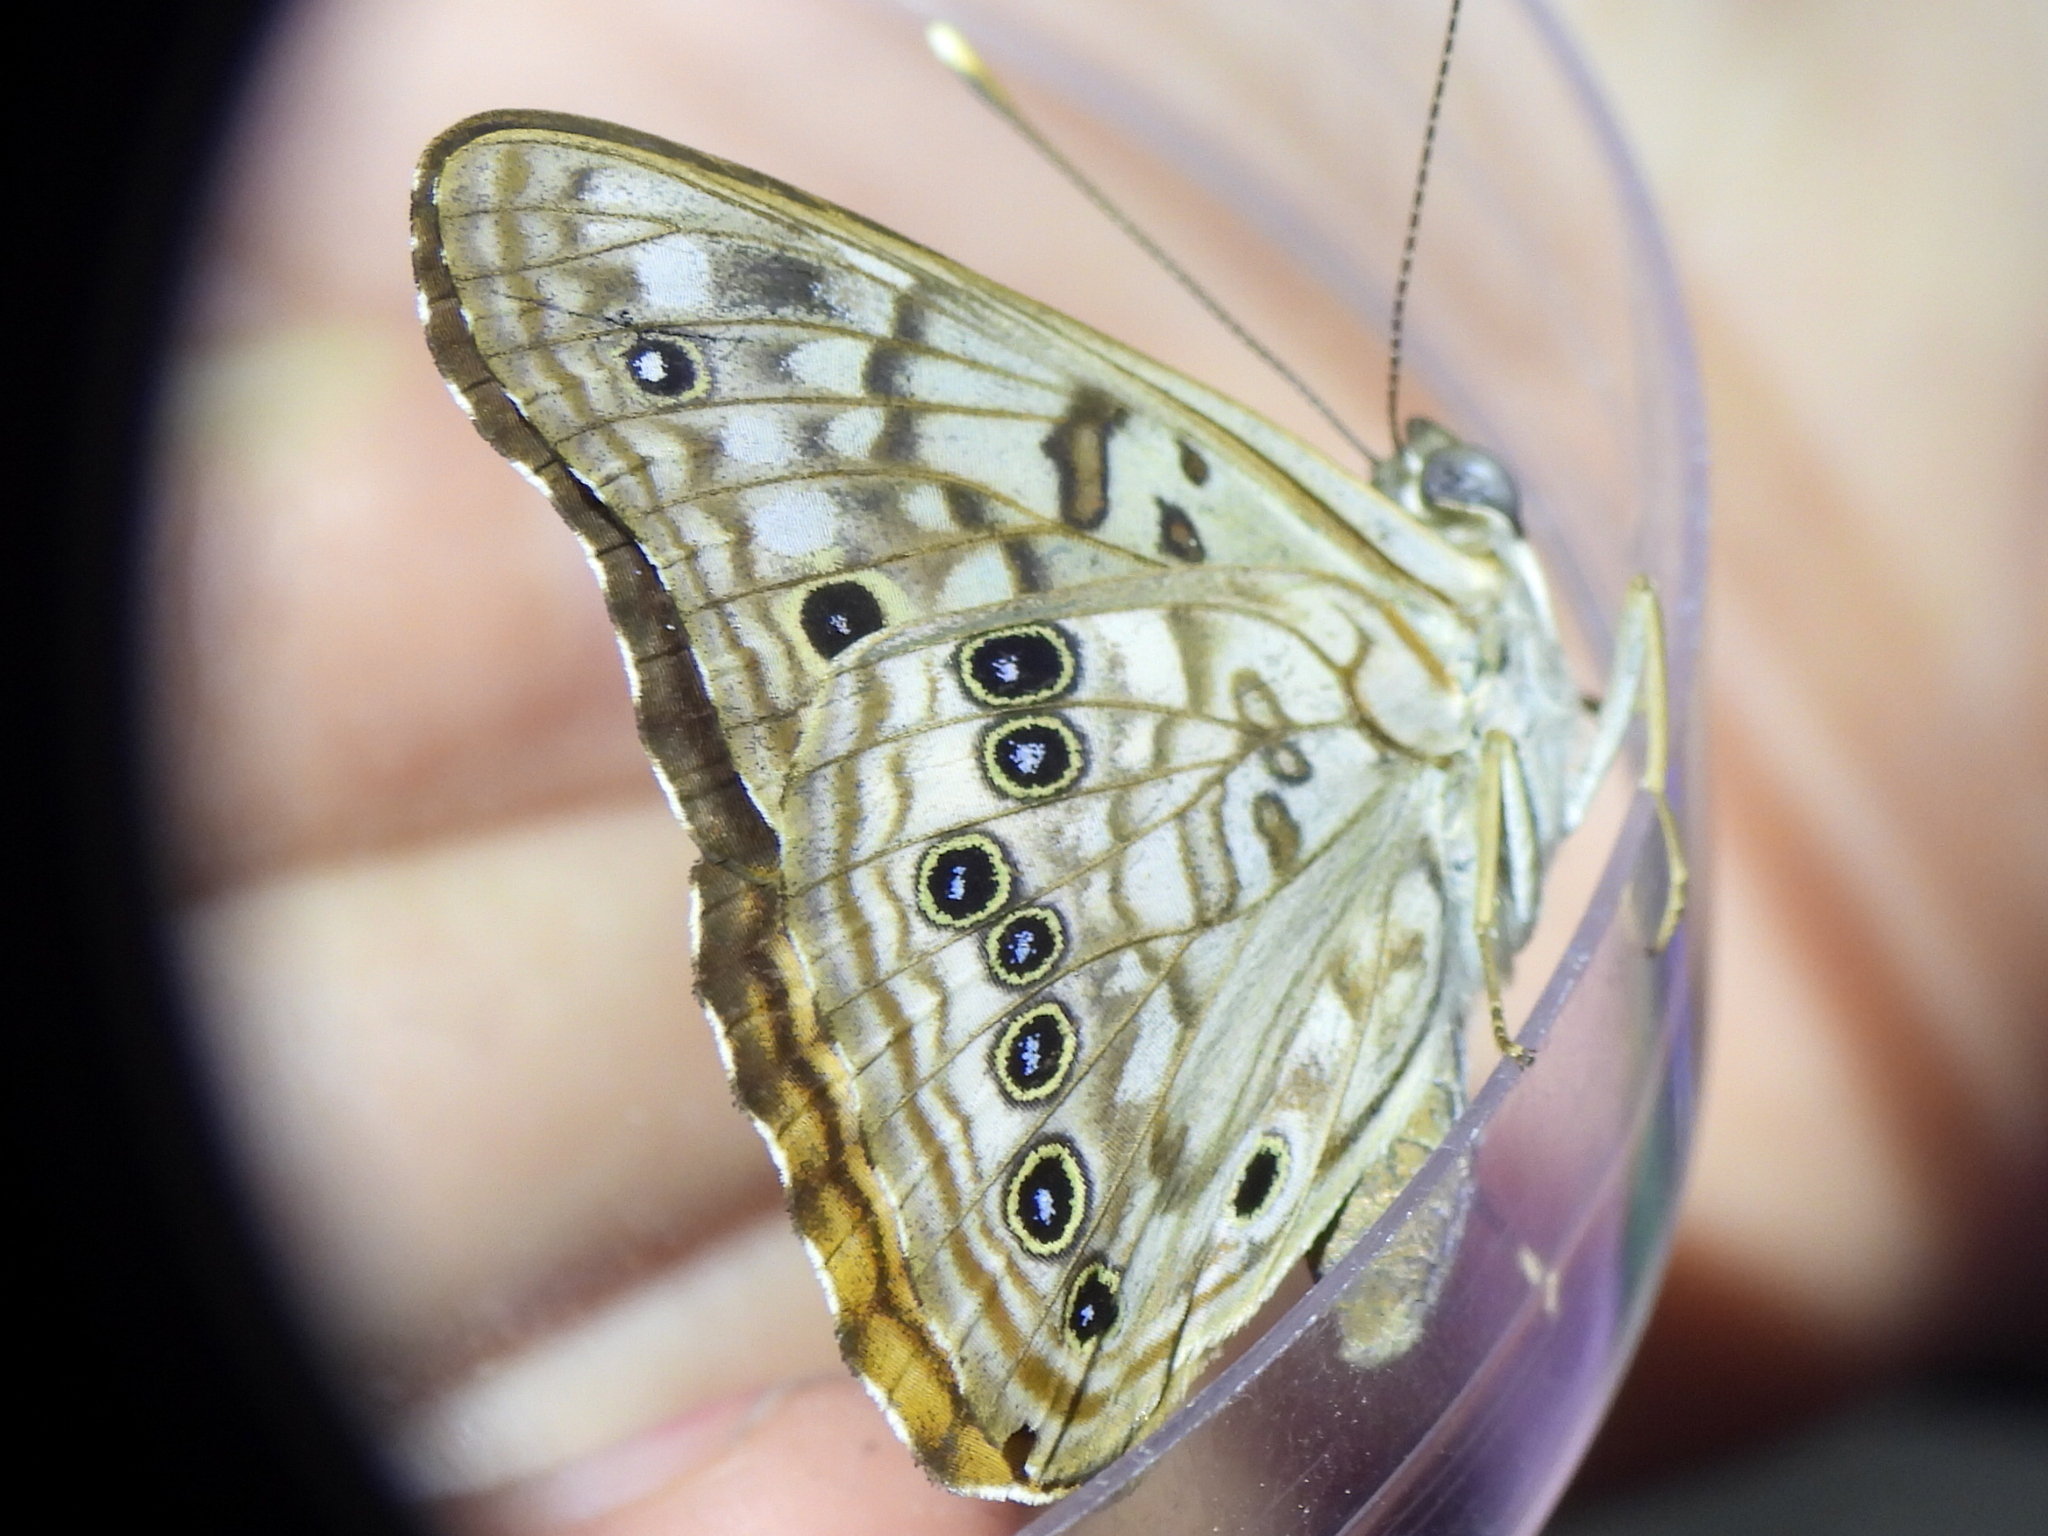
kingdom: Animalia
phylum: Arthropoda
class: Insecta
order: Lepidoptera
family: Nymphalidae
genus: Asterocampa
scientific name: Asterocampa celtis
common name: Hackberry emperor
